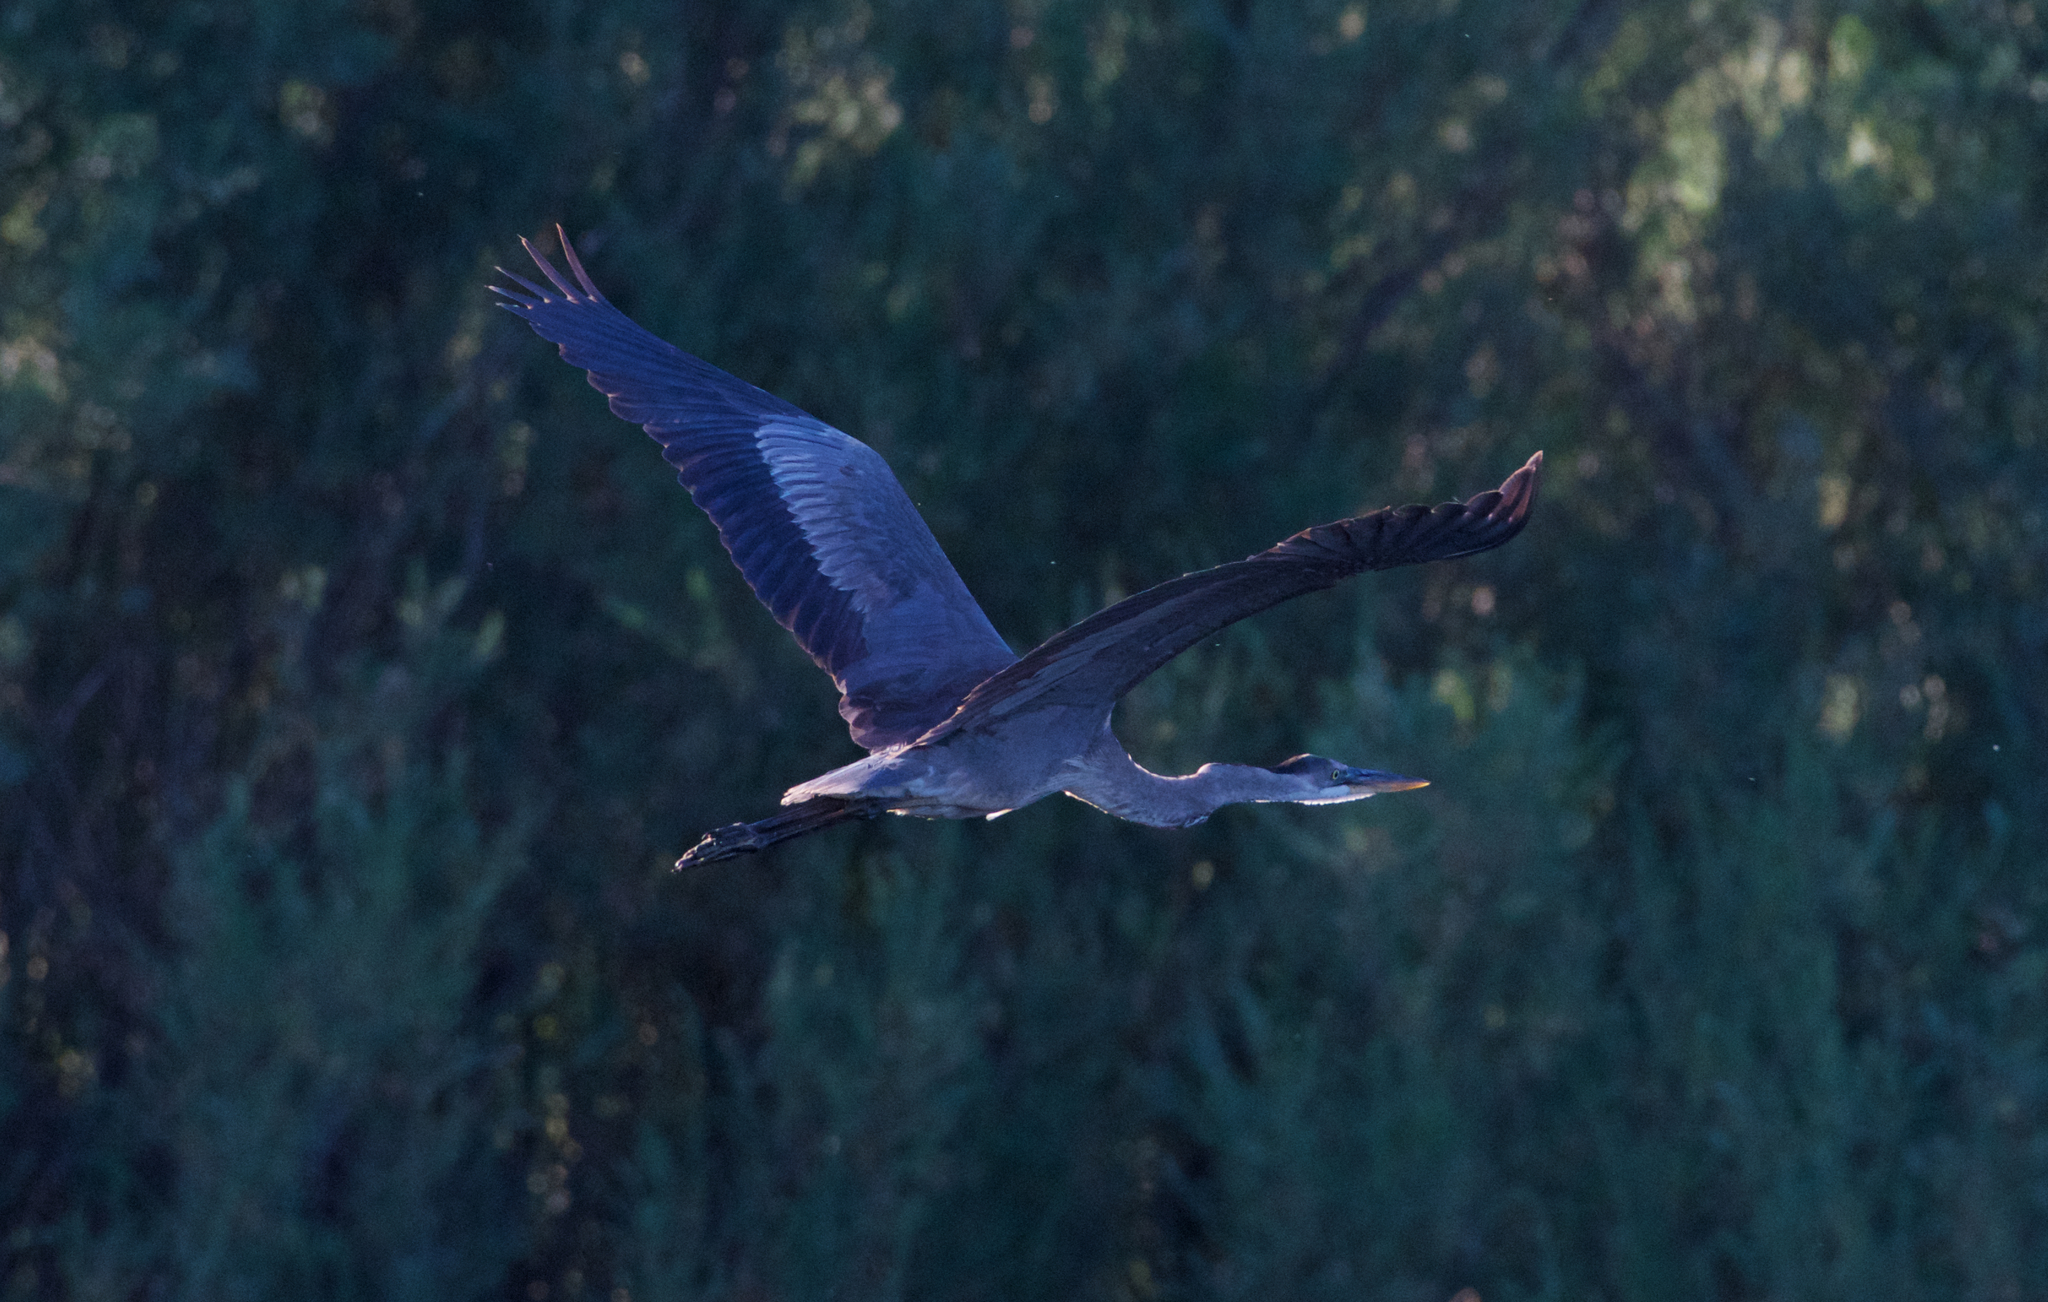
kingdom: Animalia
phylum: Chordata
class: Aves
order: Pelecaniformes
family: Ardeidae
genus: Ardea
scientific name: Ardea herodias
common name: Great blue heron
